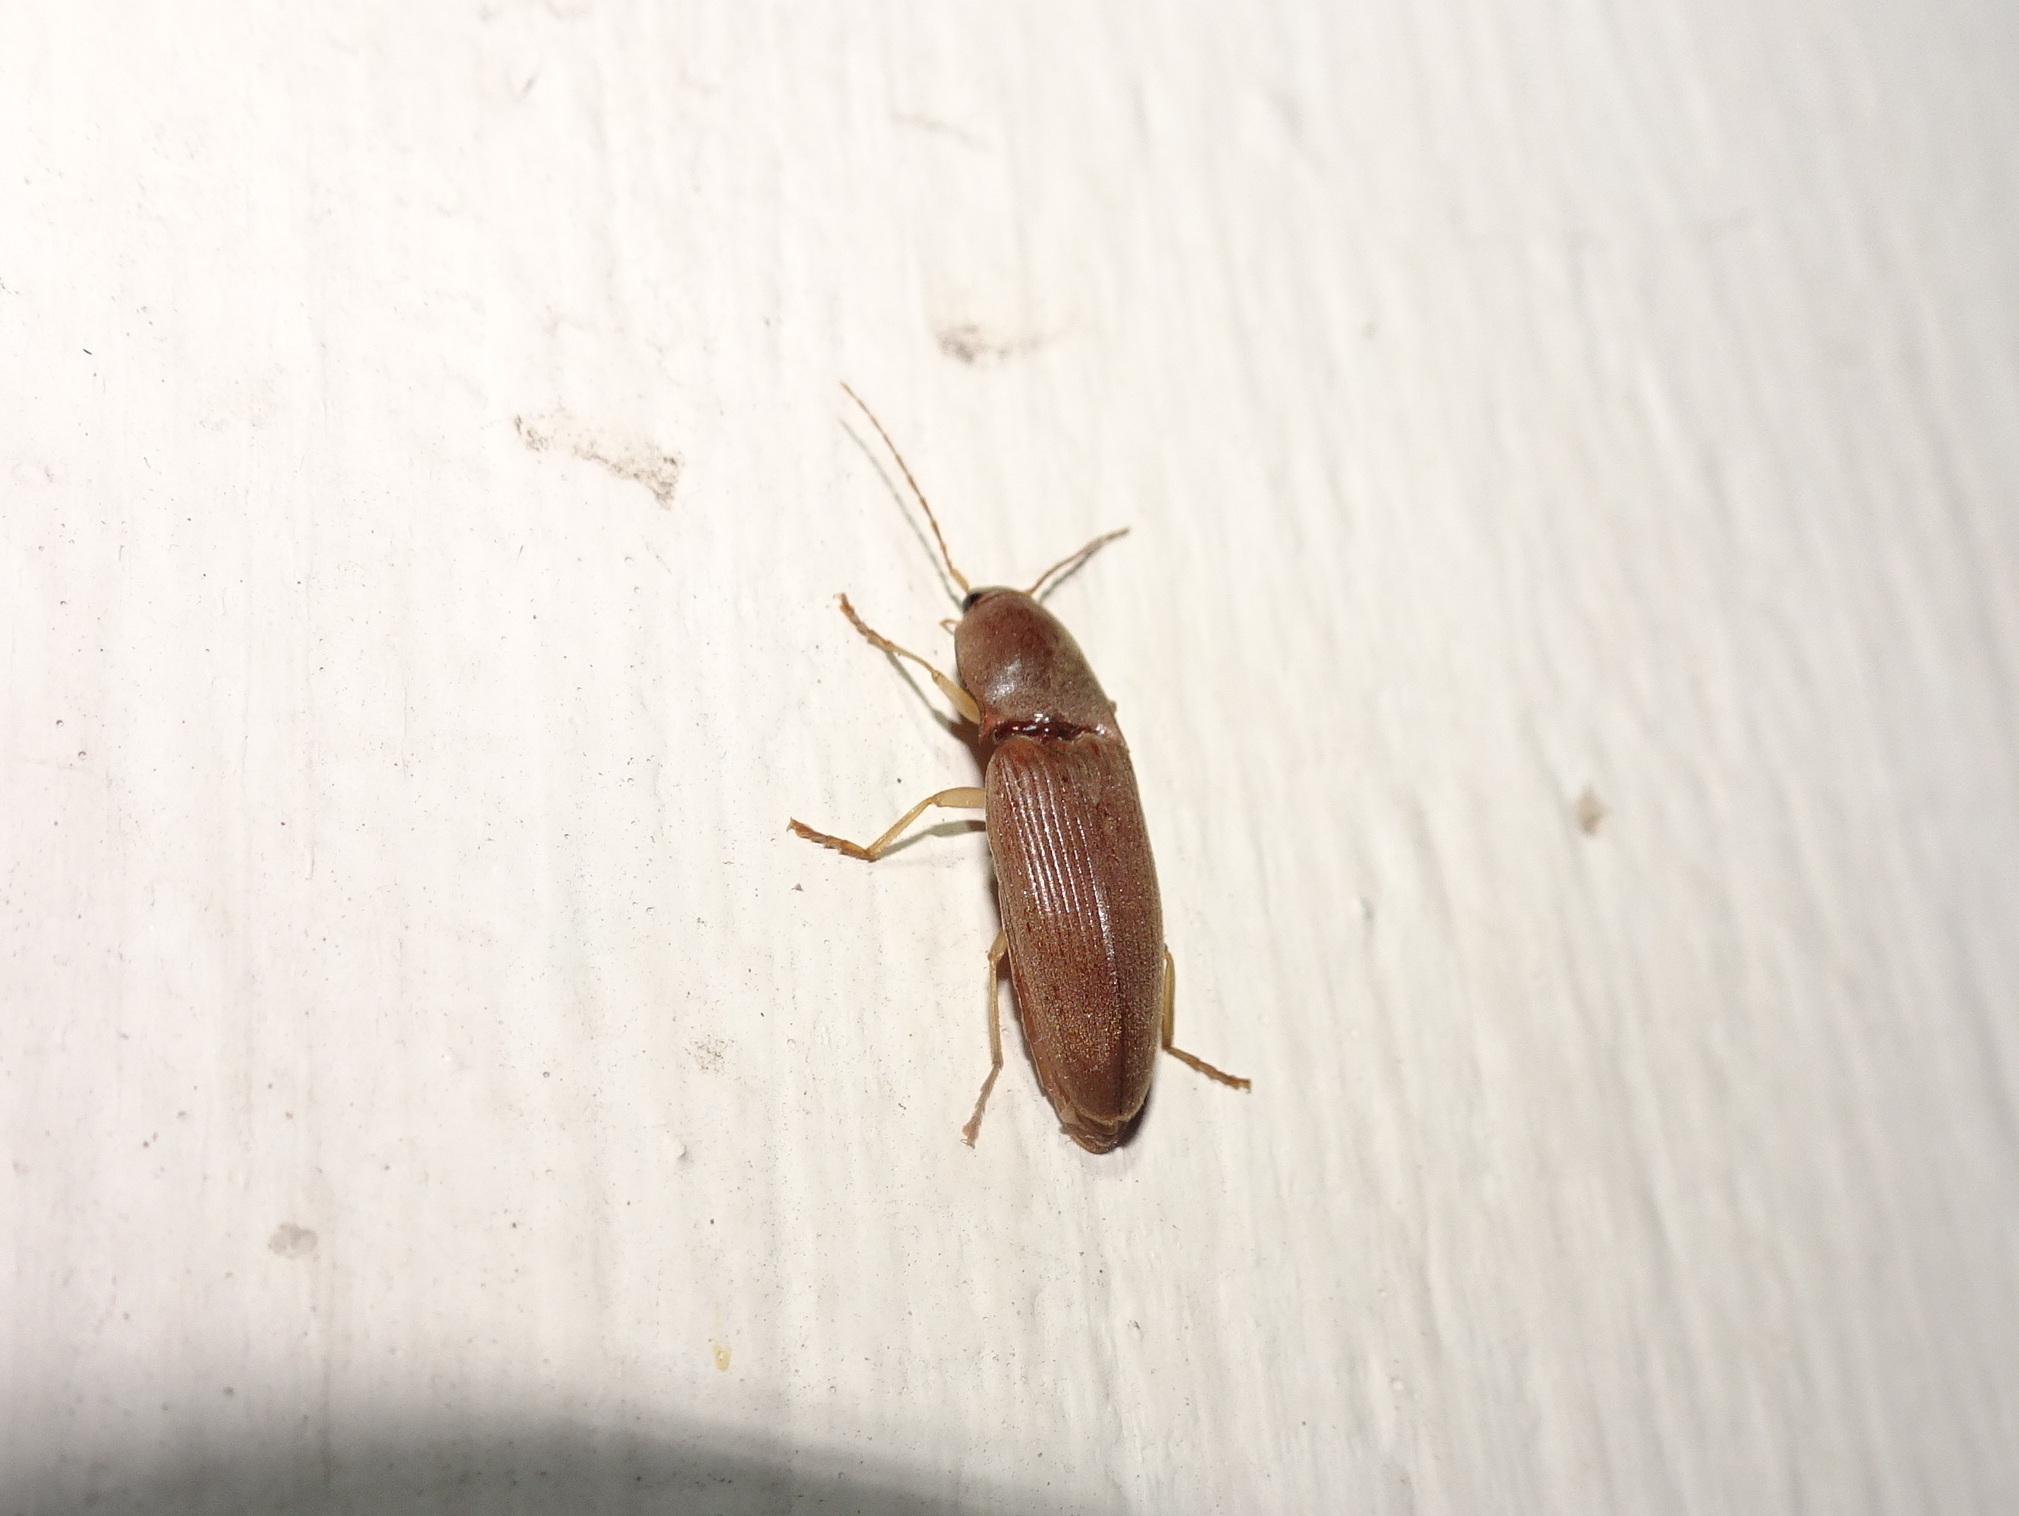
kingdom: Animalia
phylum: Arthropoda
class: Insecta
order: Coleoptera
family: Elateridae
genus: Monocrepidius
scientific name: Monocrepidius lividus
